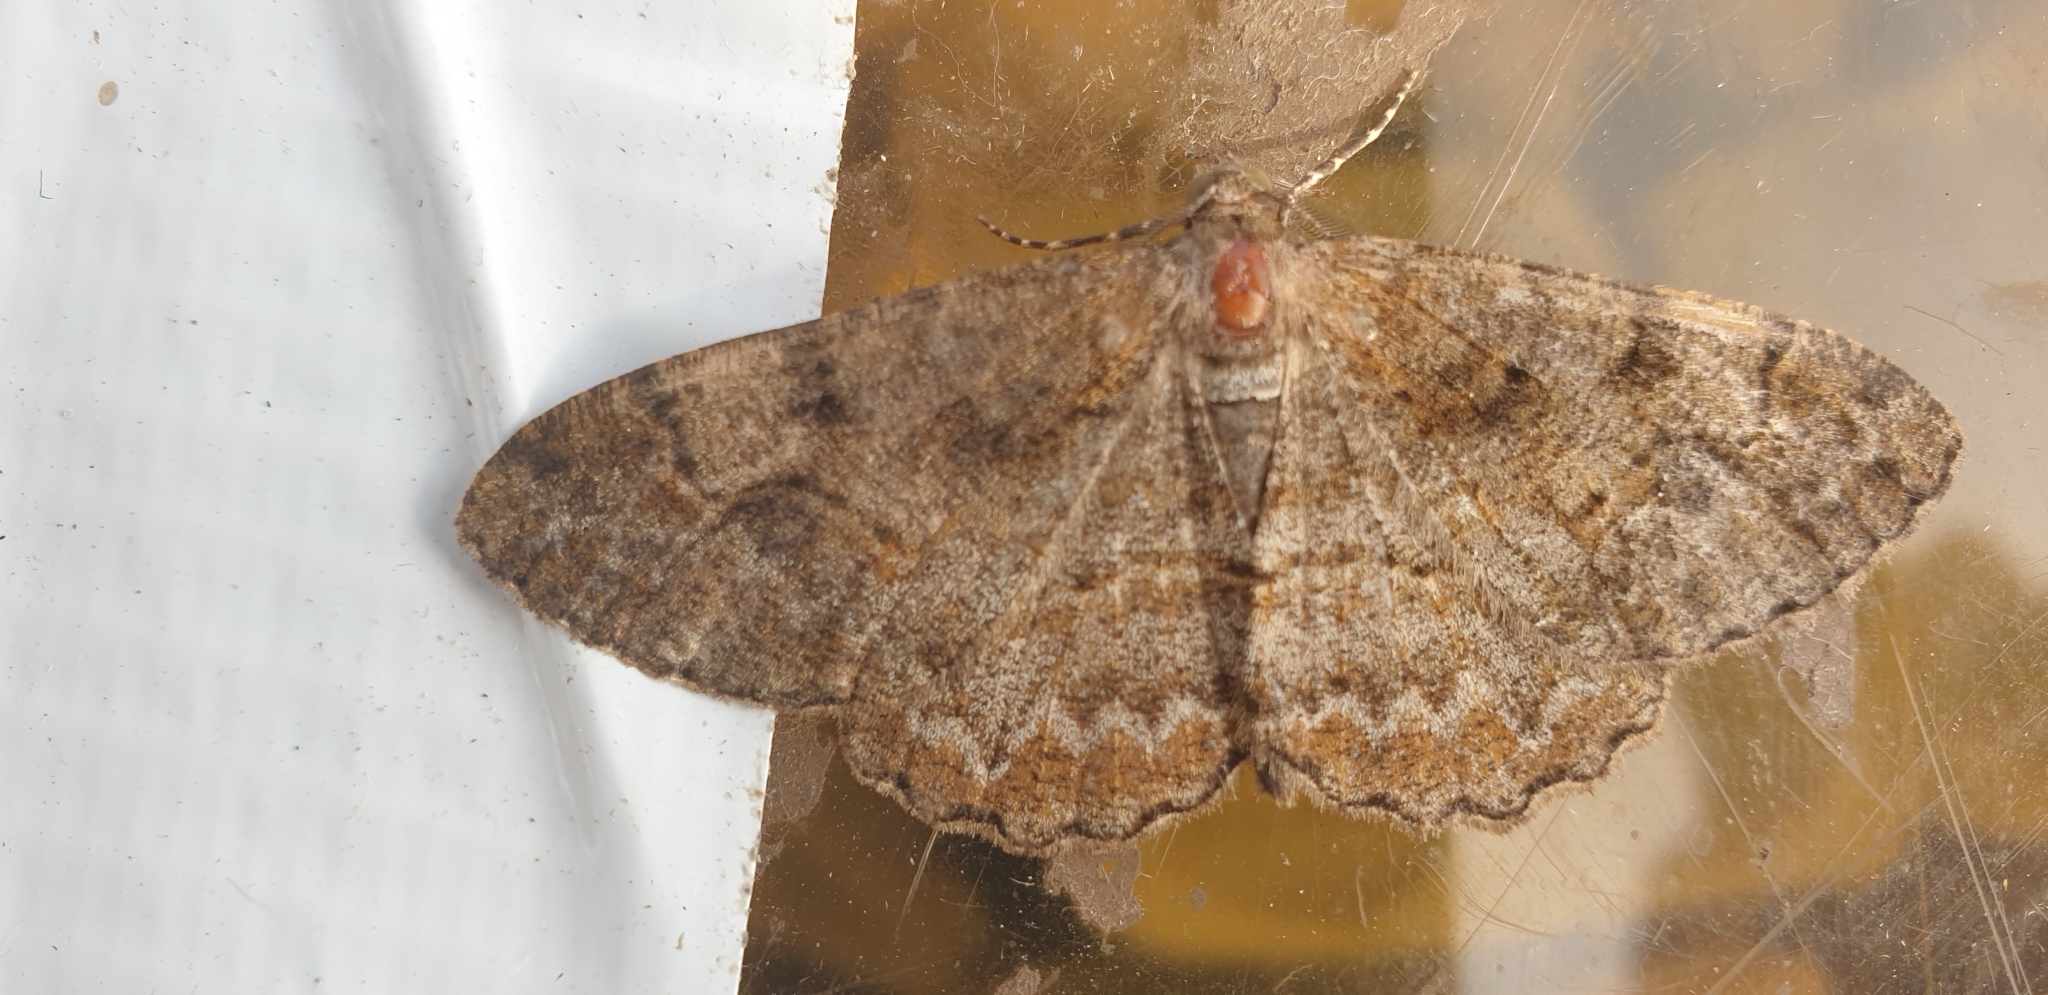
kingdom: Animalia
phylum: Arthropoda
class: Insecta
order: Lepidoptera
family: Geometridae
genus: Alcis
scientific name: Alcis repandata
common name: Mottled beauty
